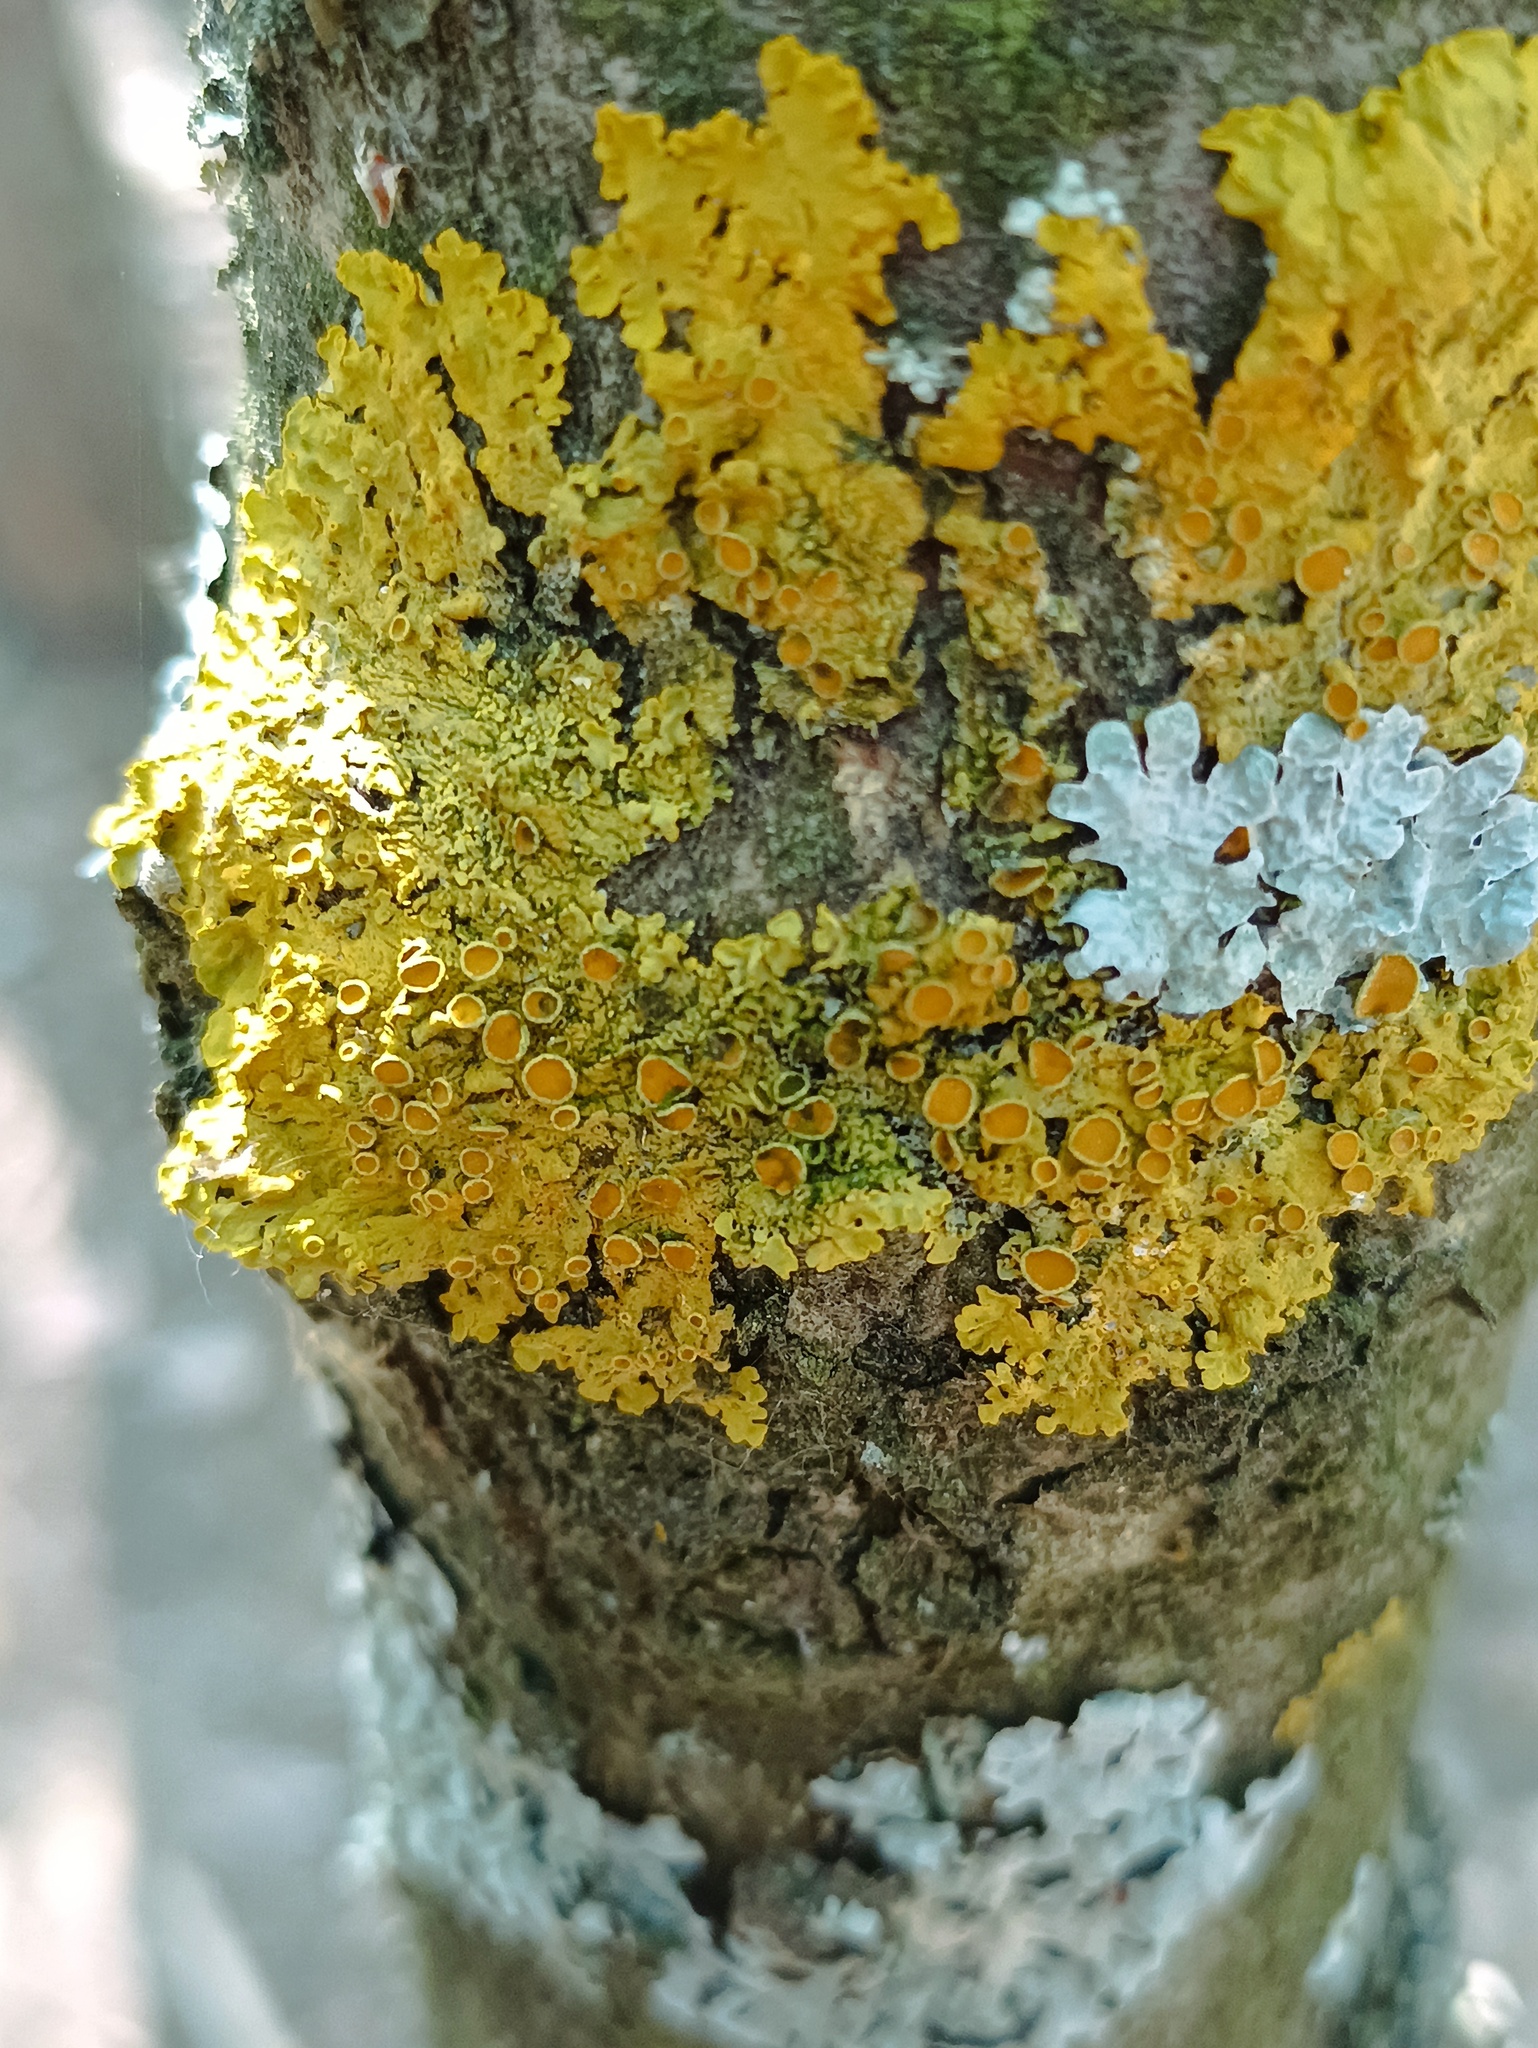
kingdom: Fungi
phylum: Ascomycota
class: Lecanoromycetes
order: Teloschistales
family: Teloschistaceae
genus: Xanthoria
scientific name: Xanthoria parietina
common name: Common orange lichen
